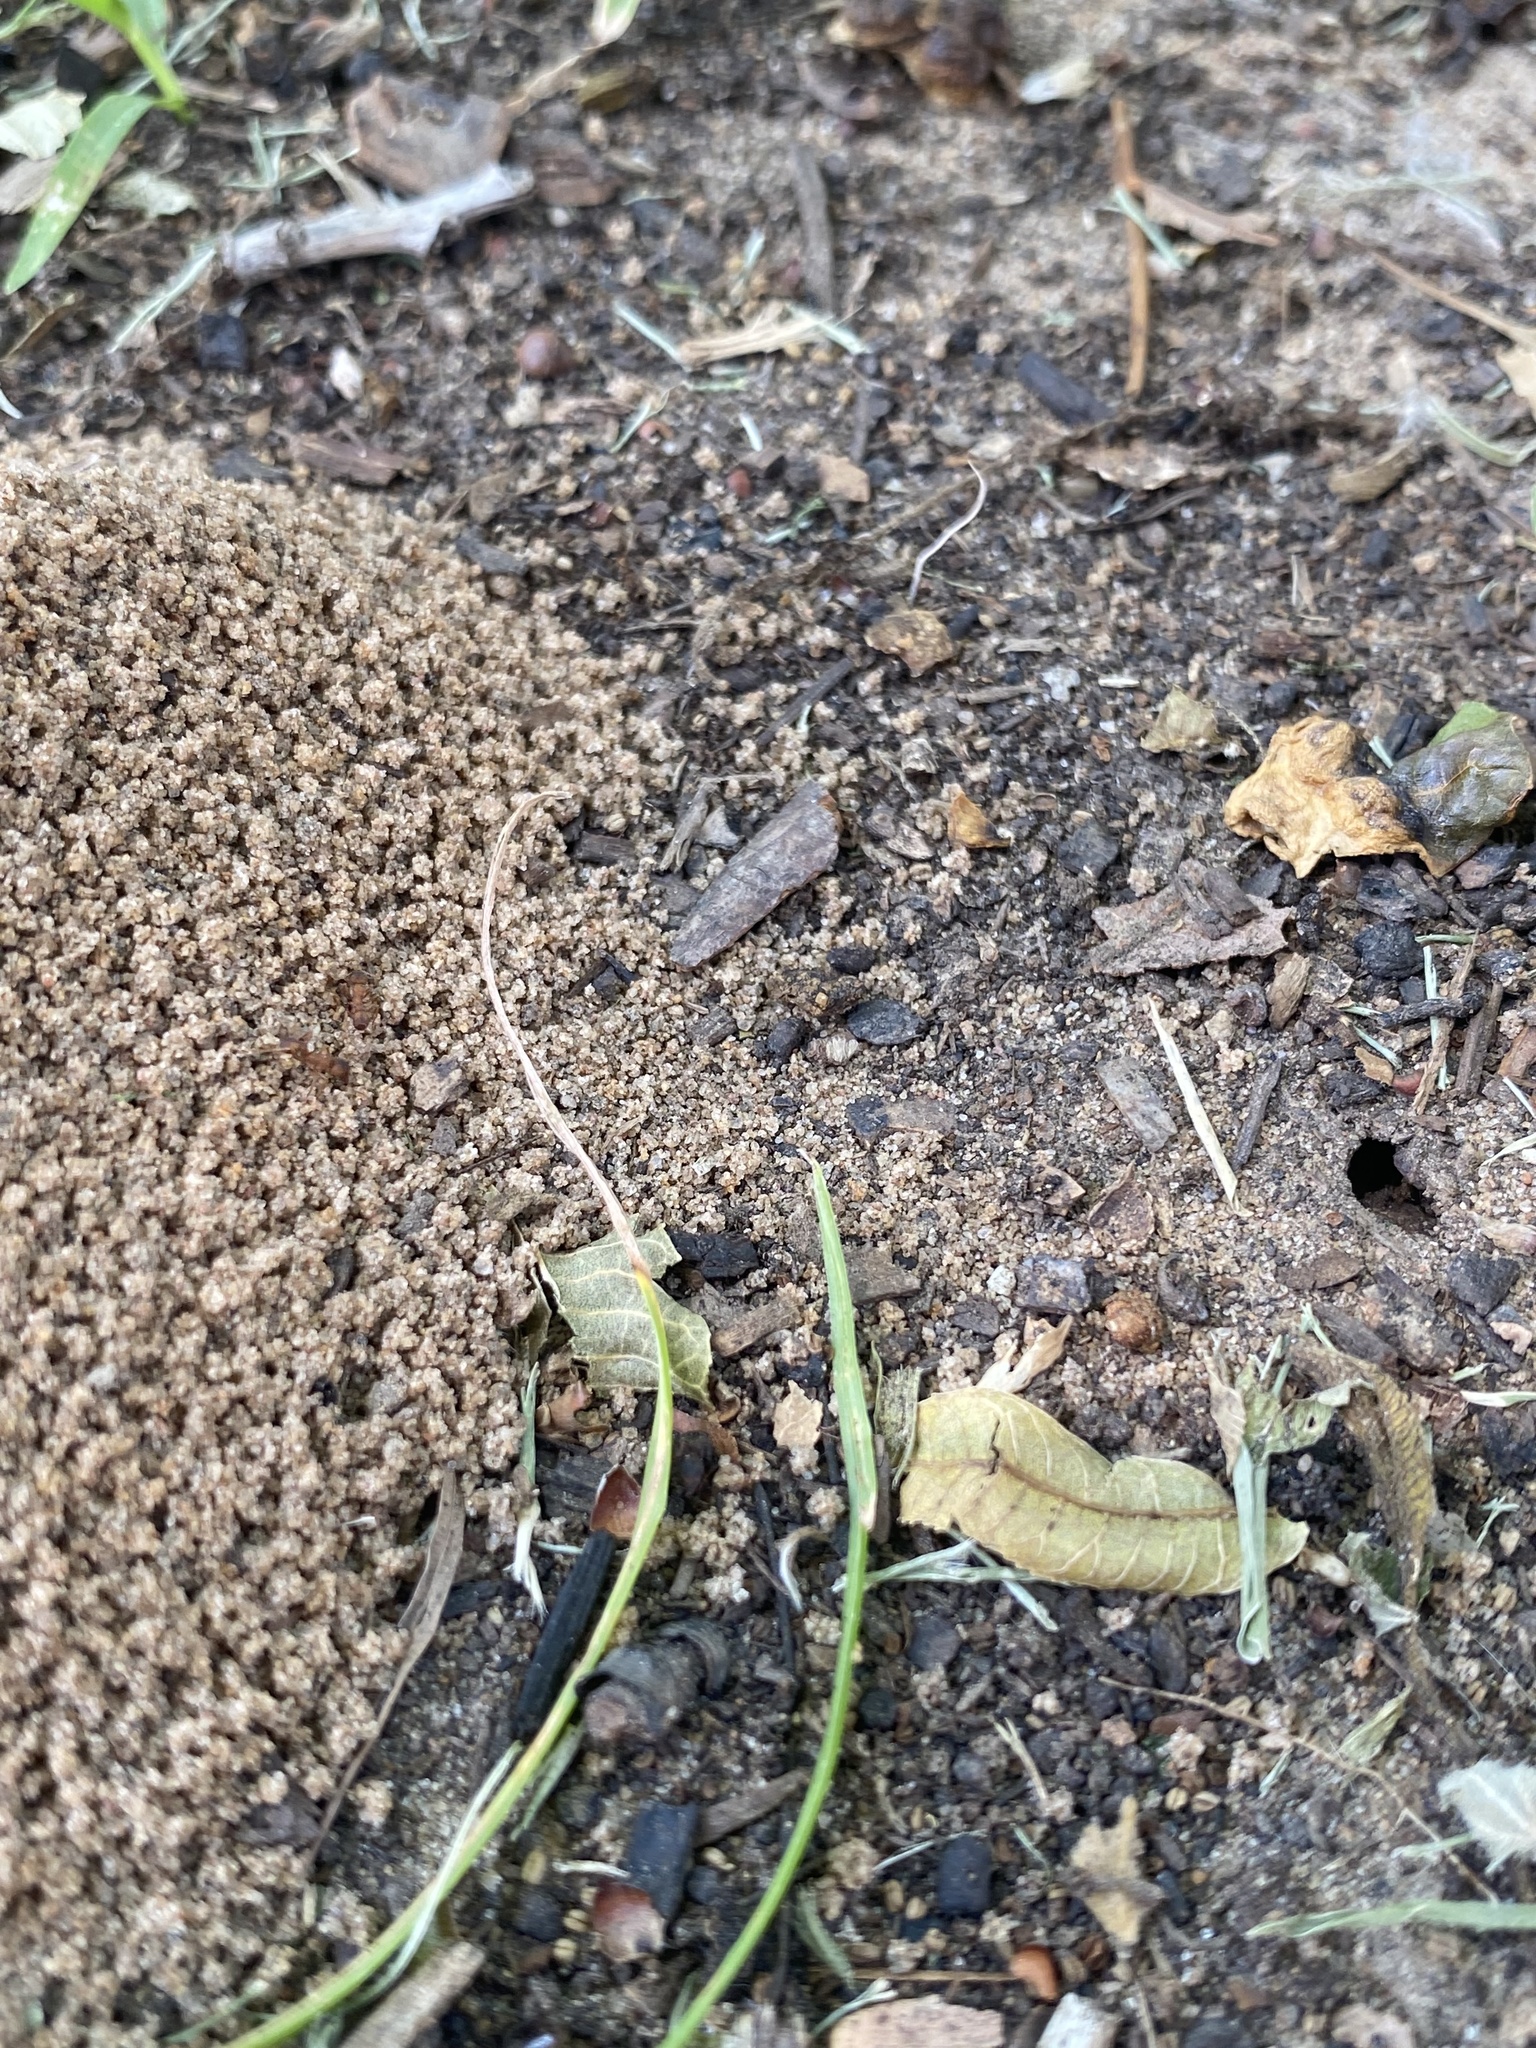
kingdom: Animalia
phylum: Arthropoda
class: Insecta
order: Hymenoptera
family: Formicidae
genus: Trachymyrmex
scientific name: Trachymyrmex septentrionalis
